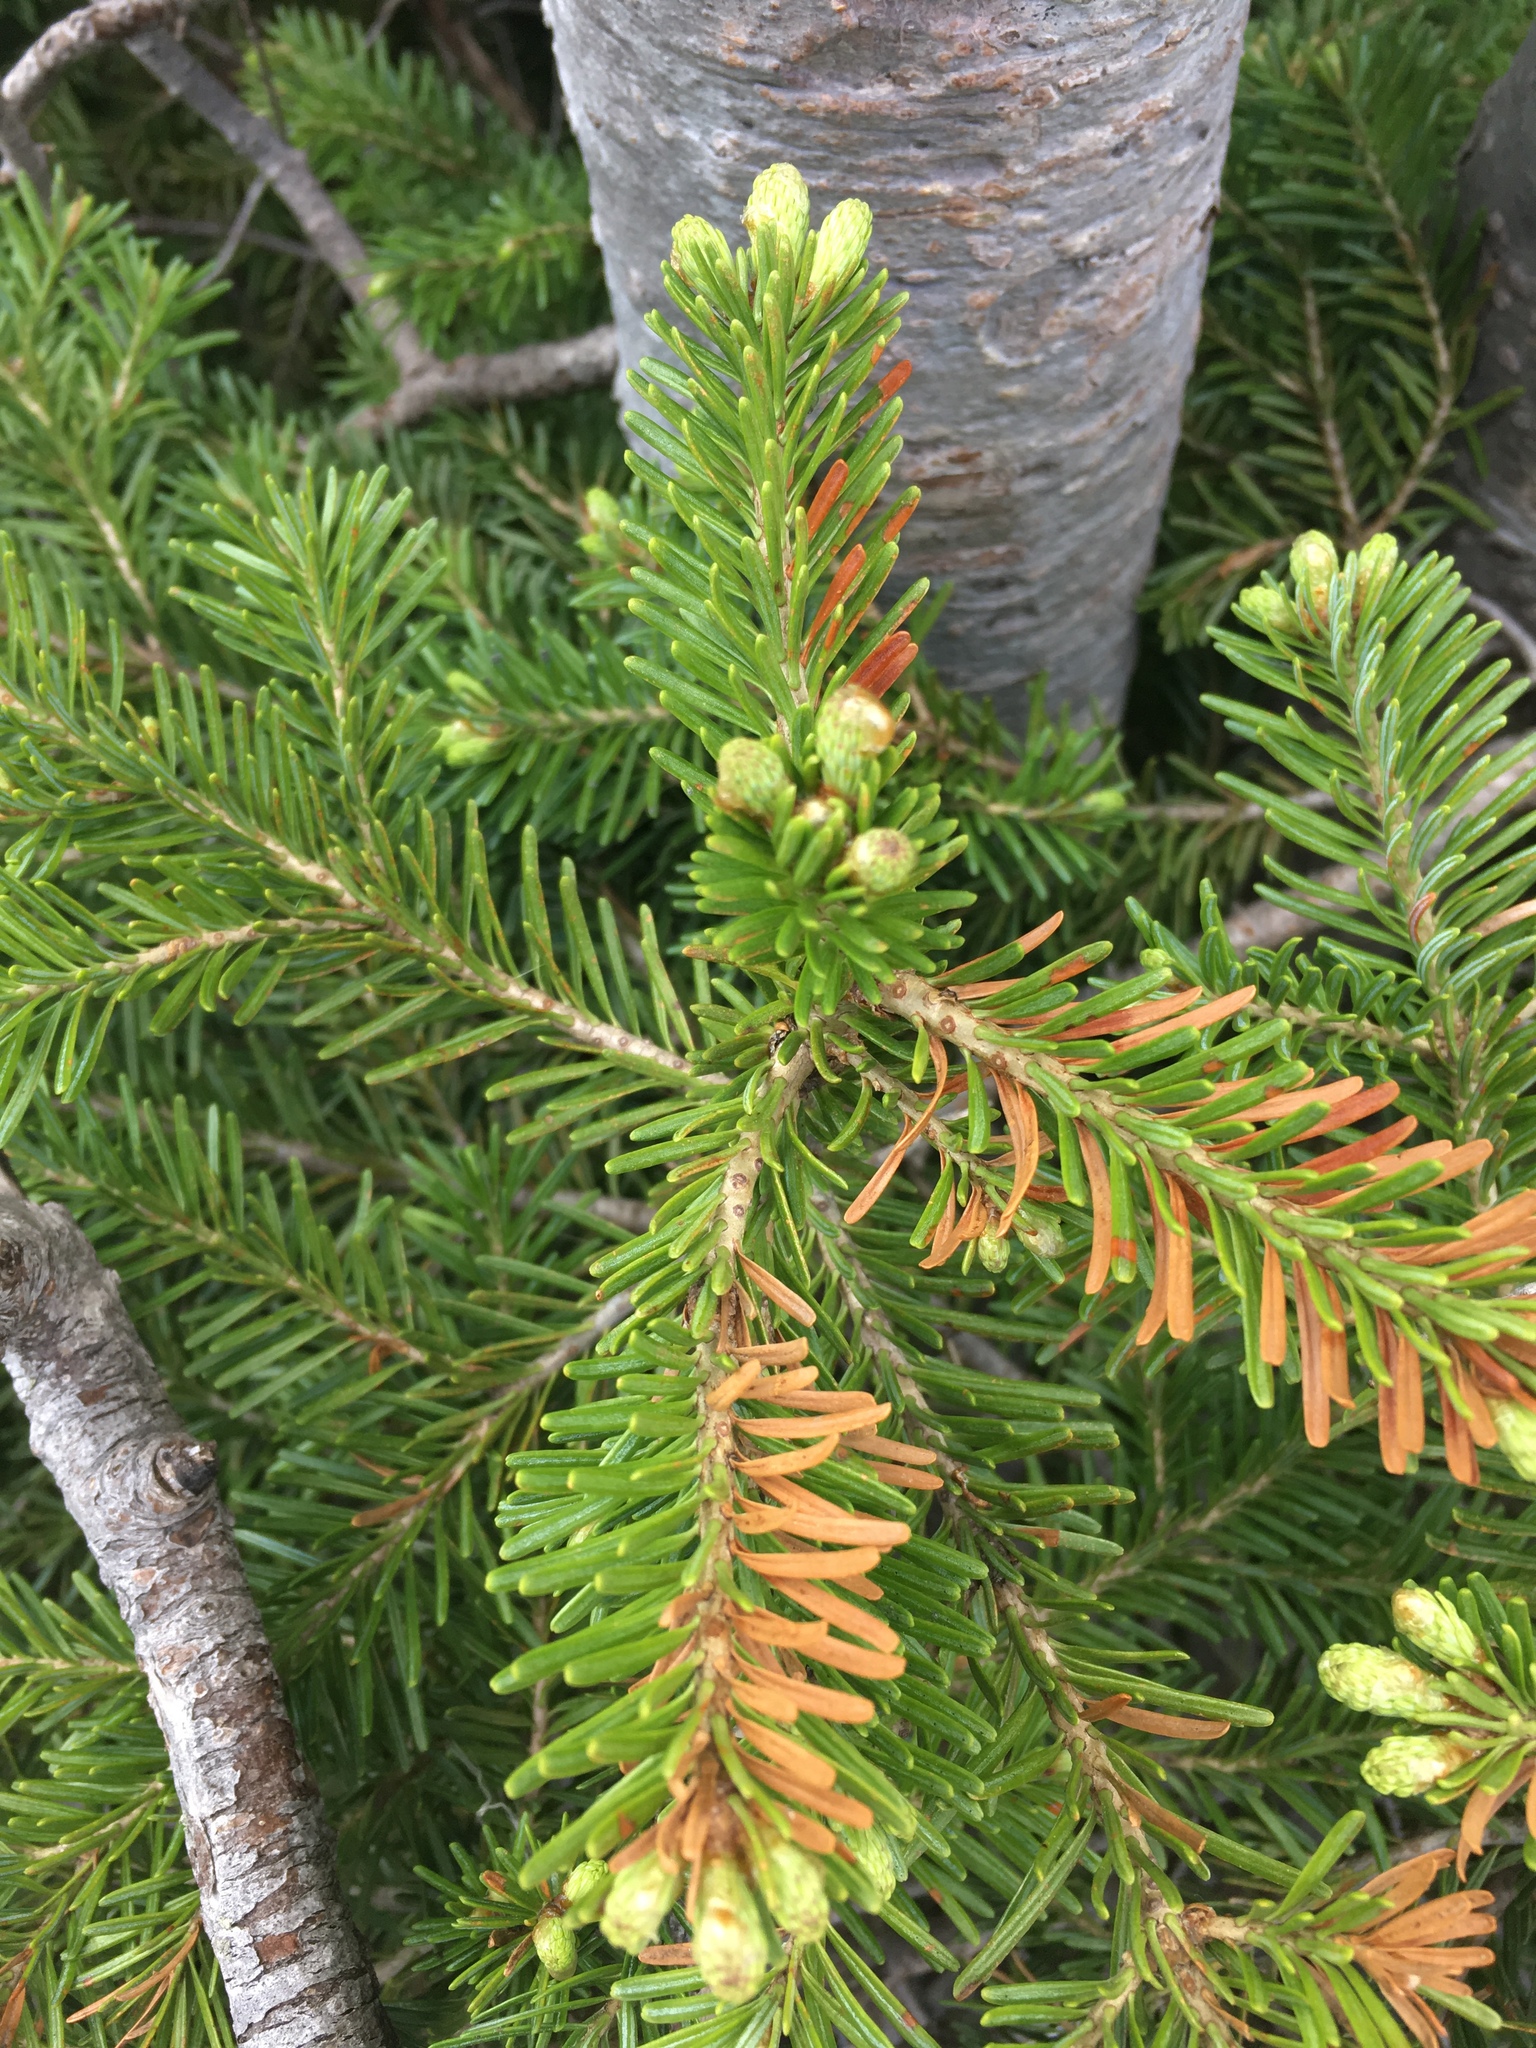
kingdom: Plantae
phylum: Tracheophyta
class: Pinopsida
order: Pinales
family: Pinaceae
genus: Abies
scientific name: Abies lasiocarpa
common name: Subalpine fir
